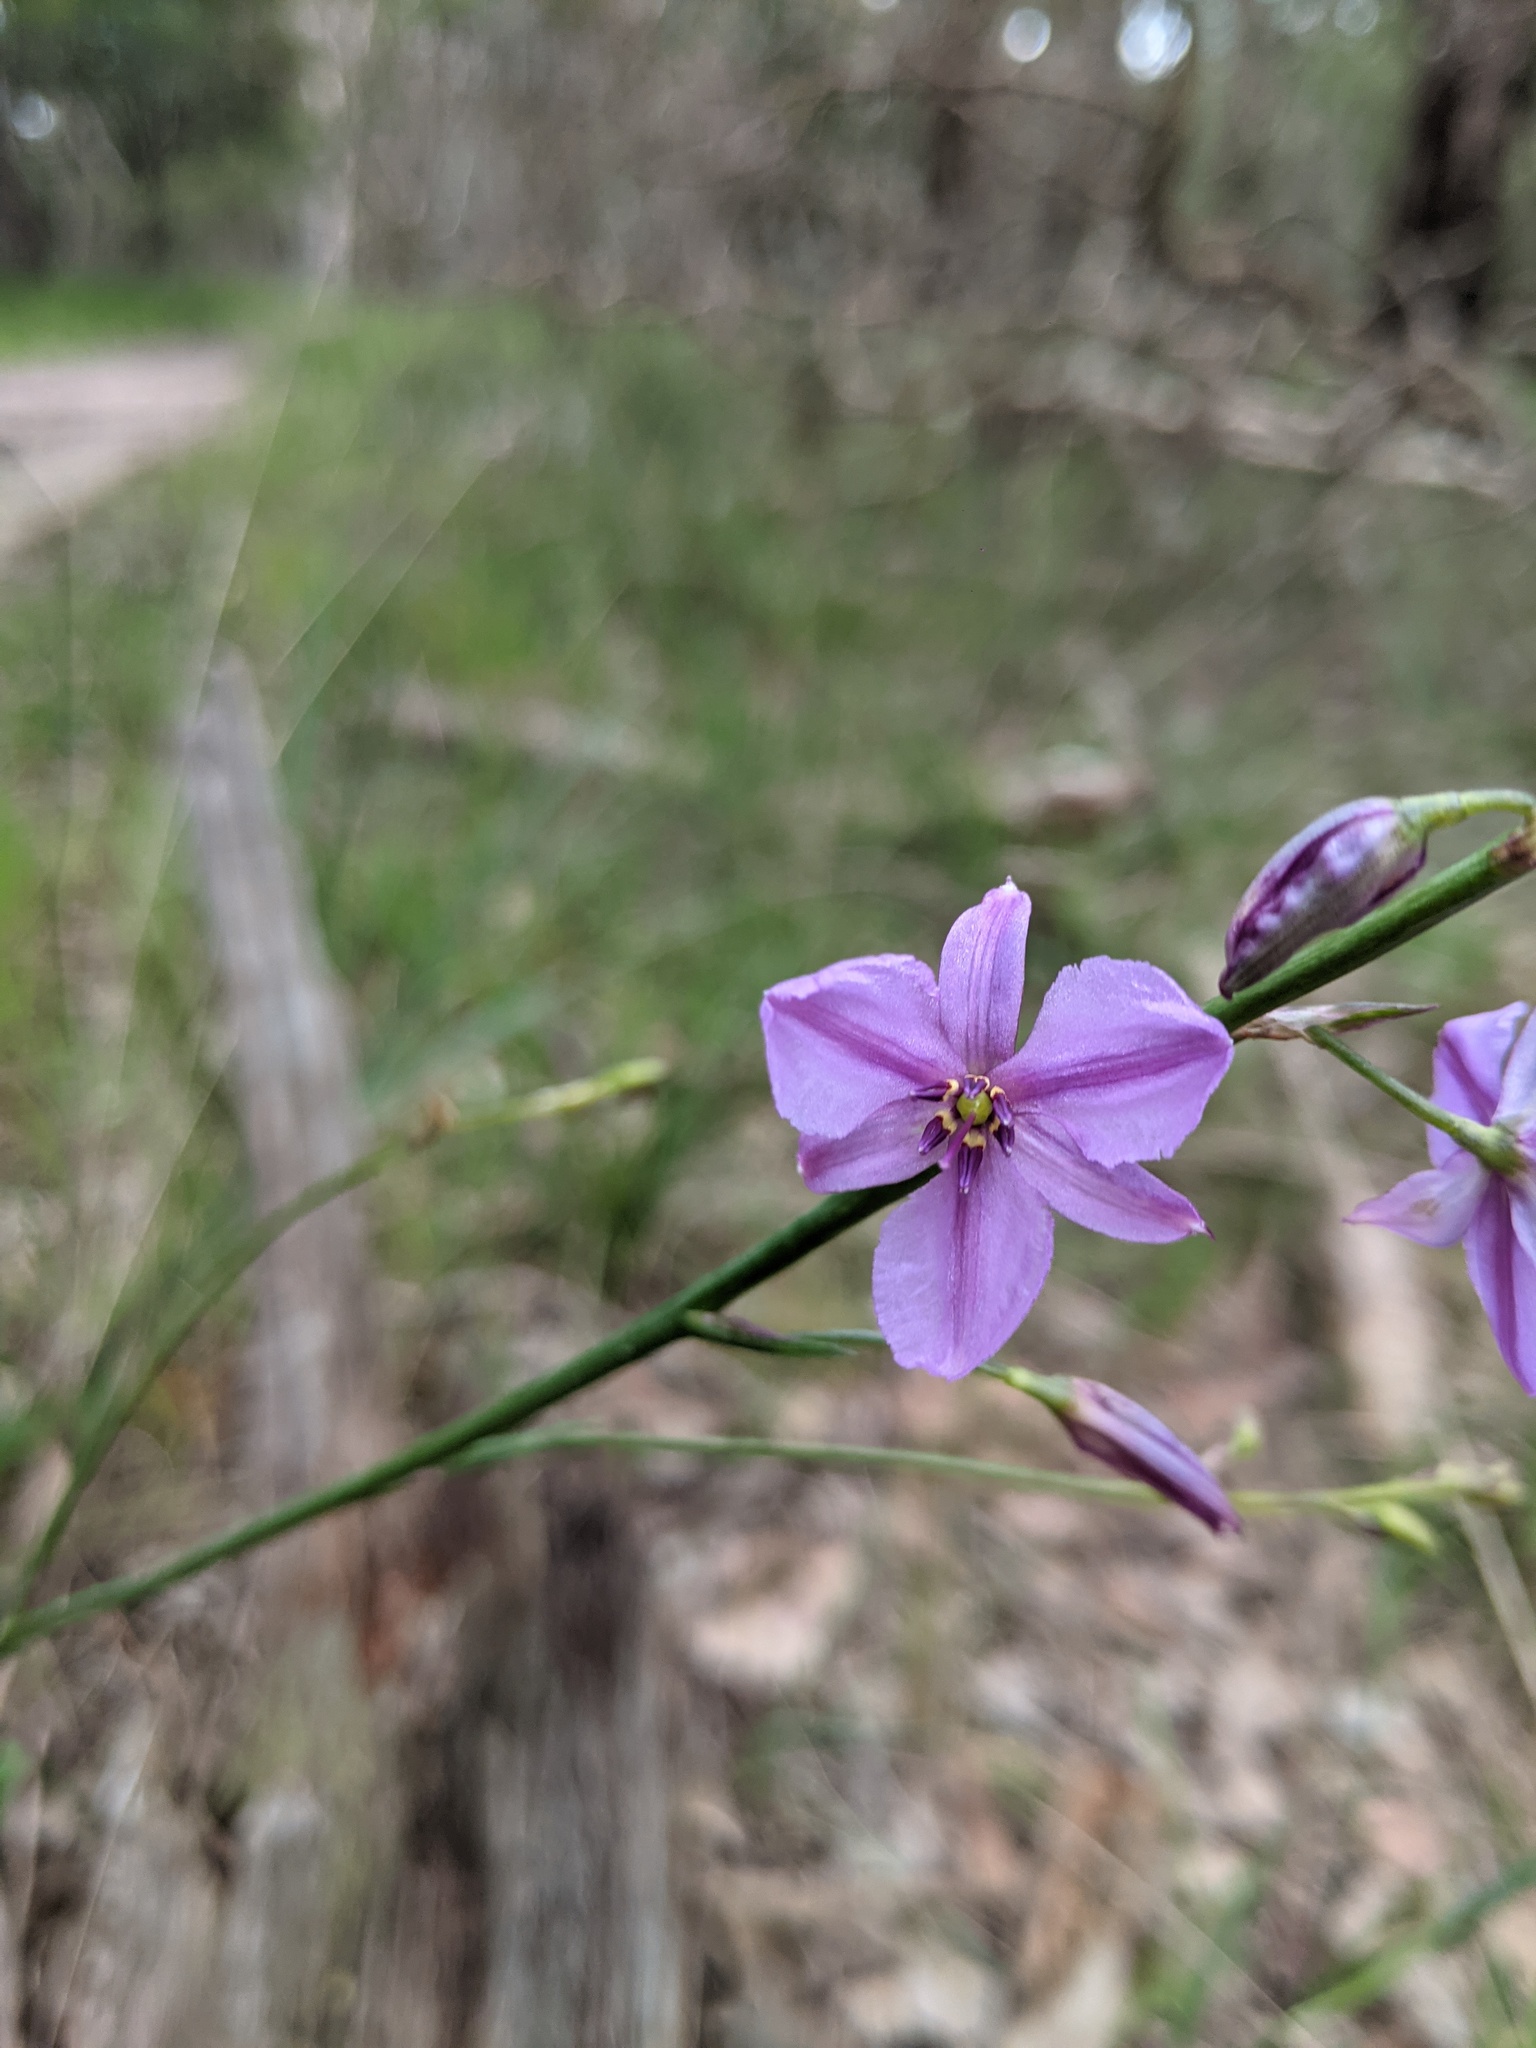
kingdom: Plantae
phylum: Tracheophyta
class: Liliopsida
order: Asparagales
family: Asparagaceae
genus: Arthropodium
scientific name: Arthropodium strictum
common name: Chocolate-lily
